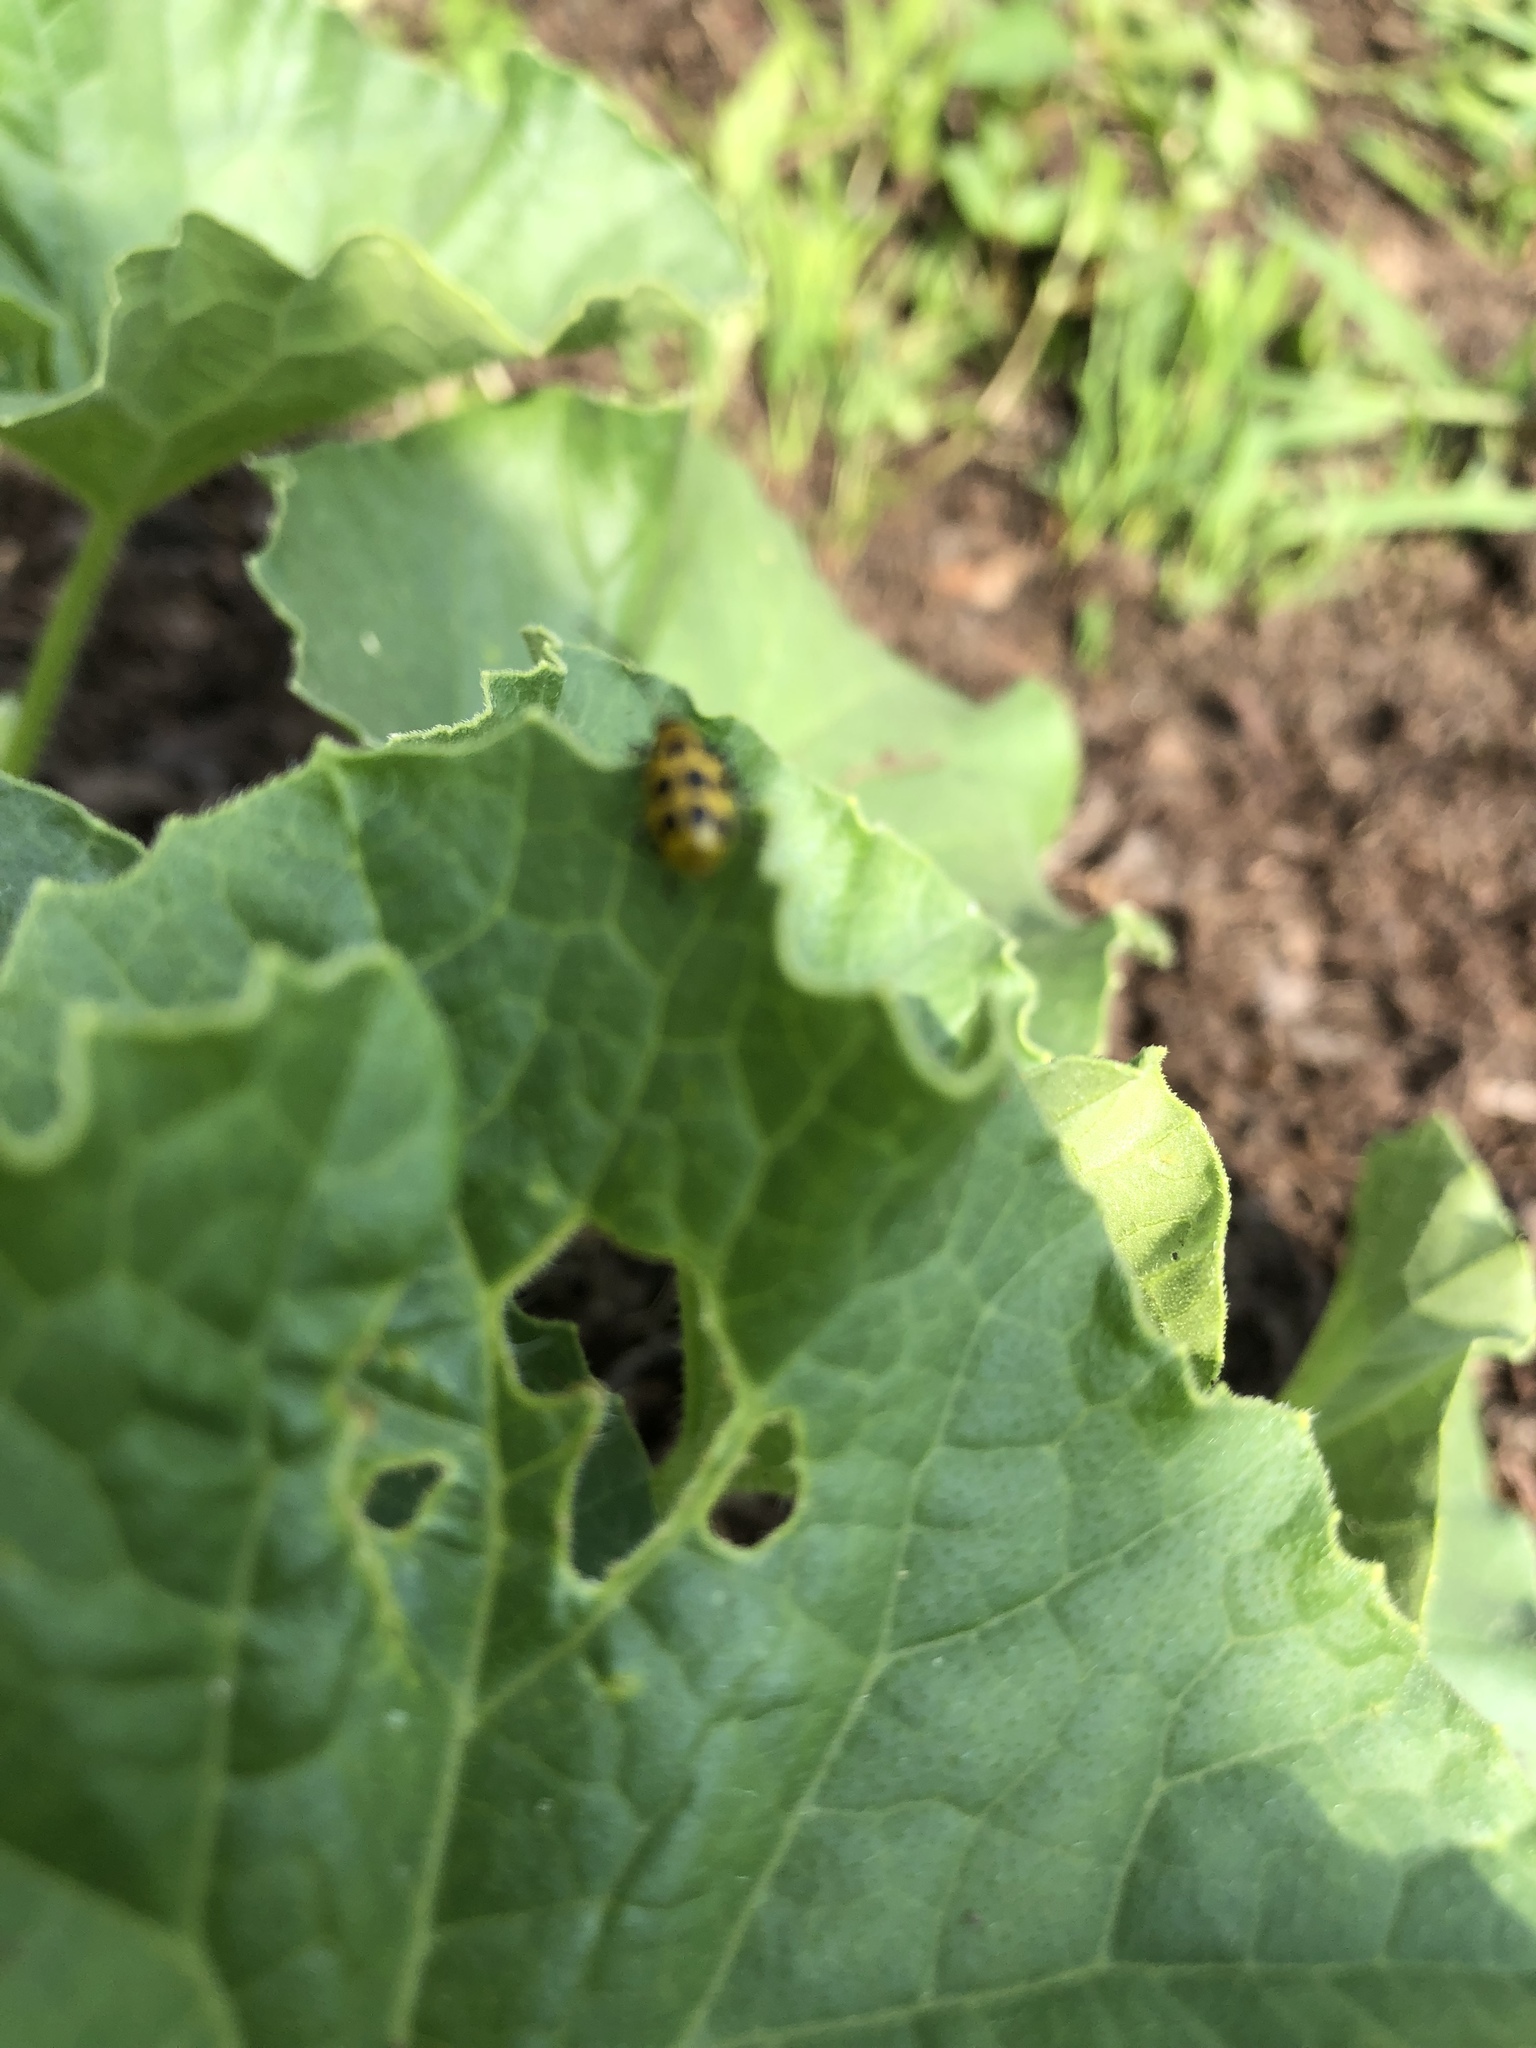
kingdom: Animalia
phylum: Arthropoda
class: Insecta
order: Coleoptera
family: Chrysomelidae
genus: Diabrotica
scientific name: Diabrotica undecimpunctata
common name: Spotted cucumber beetle
